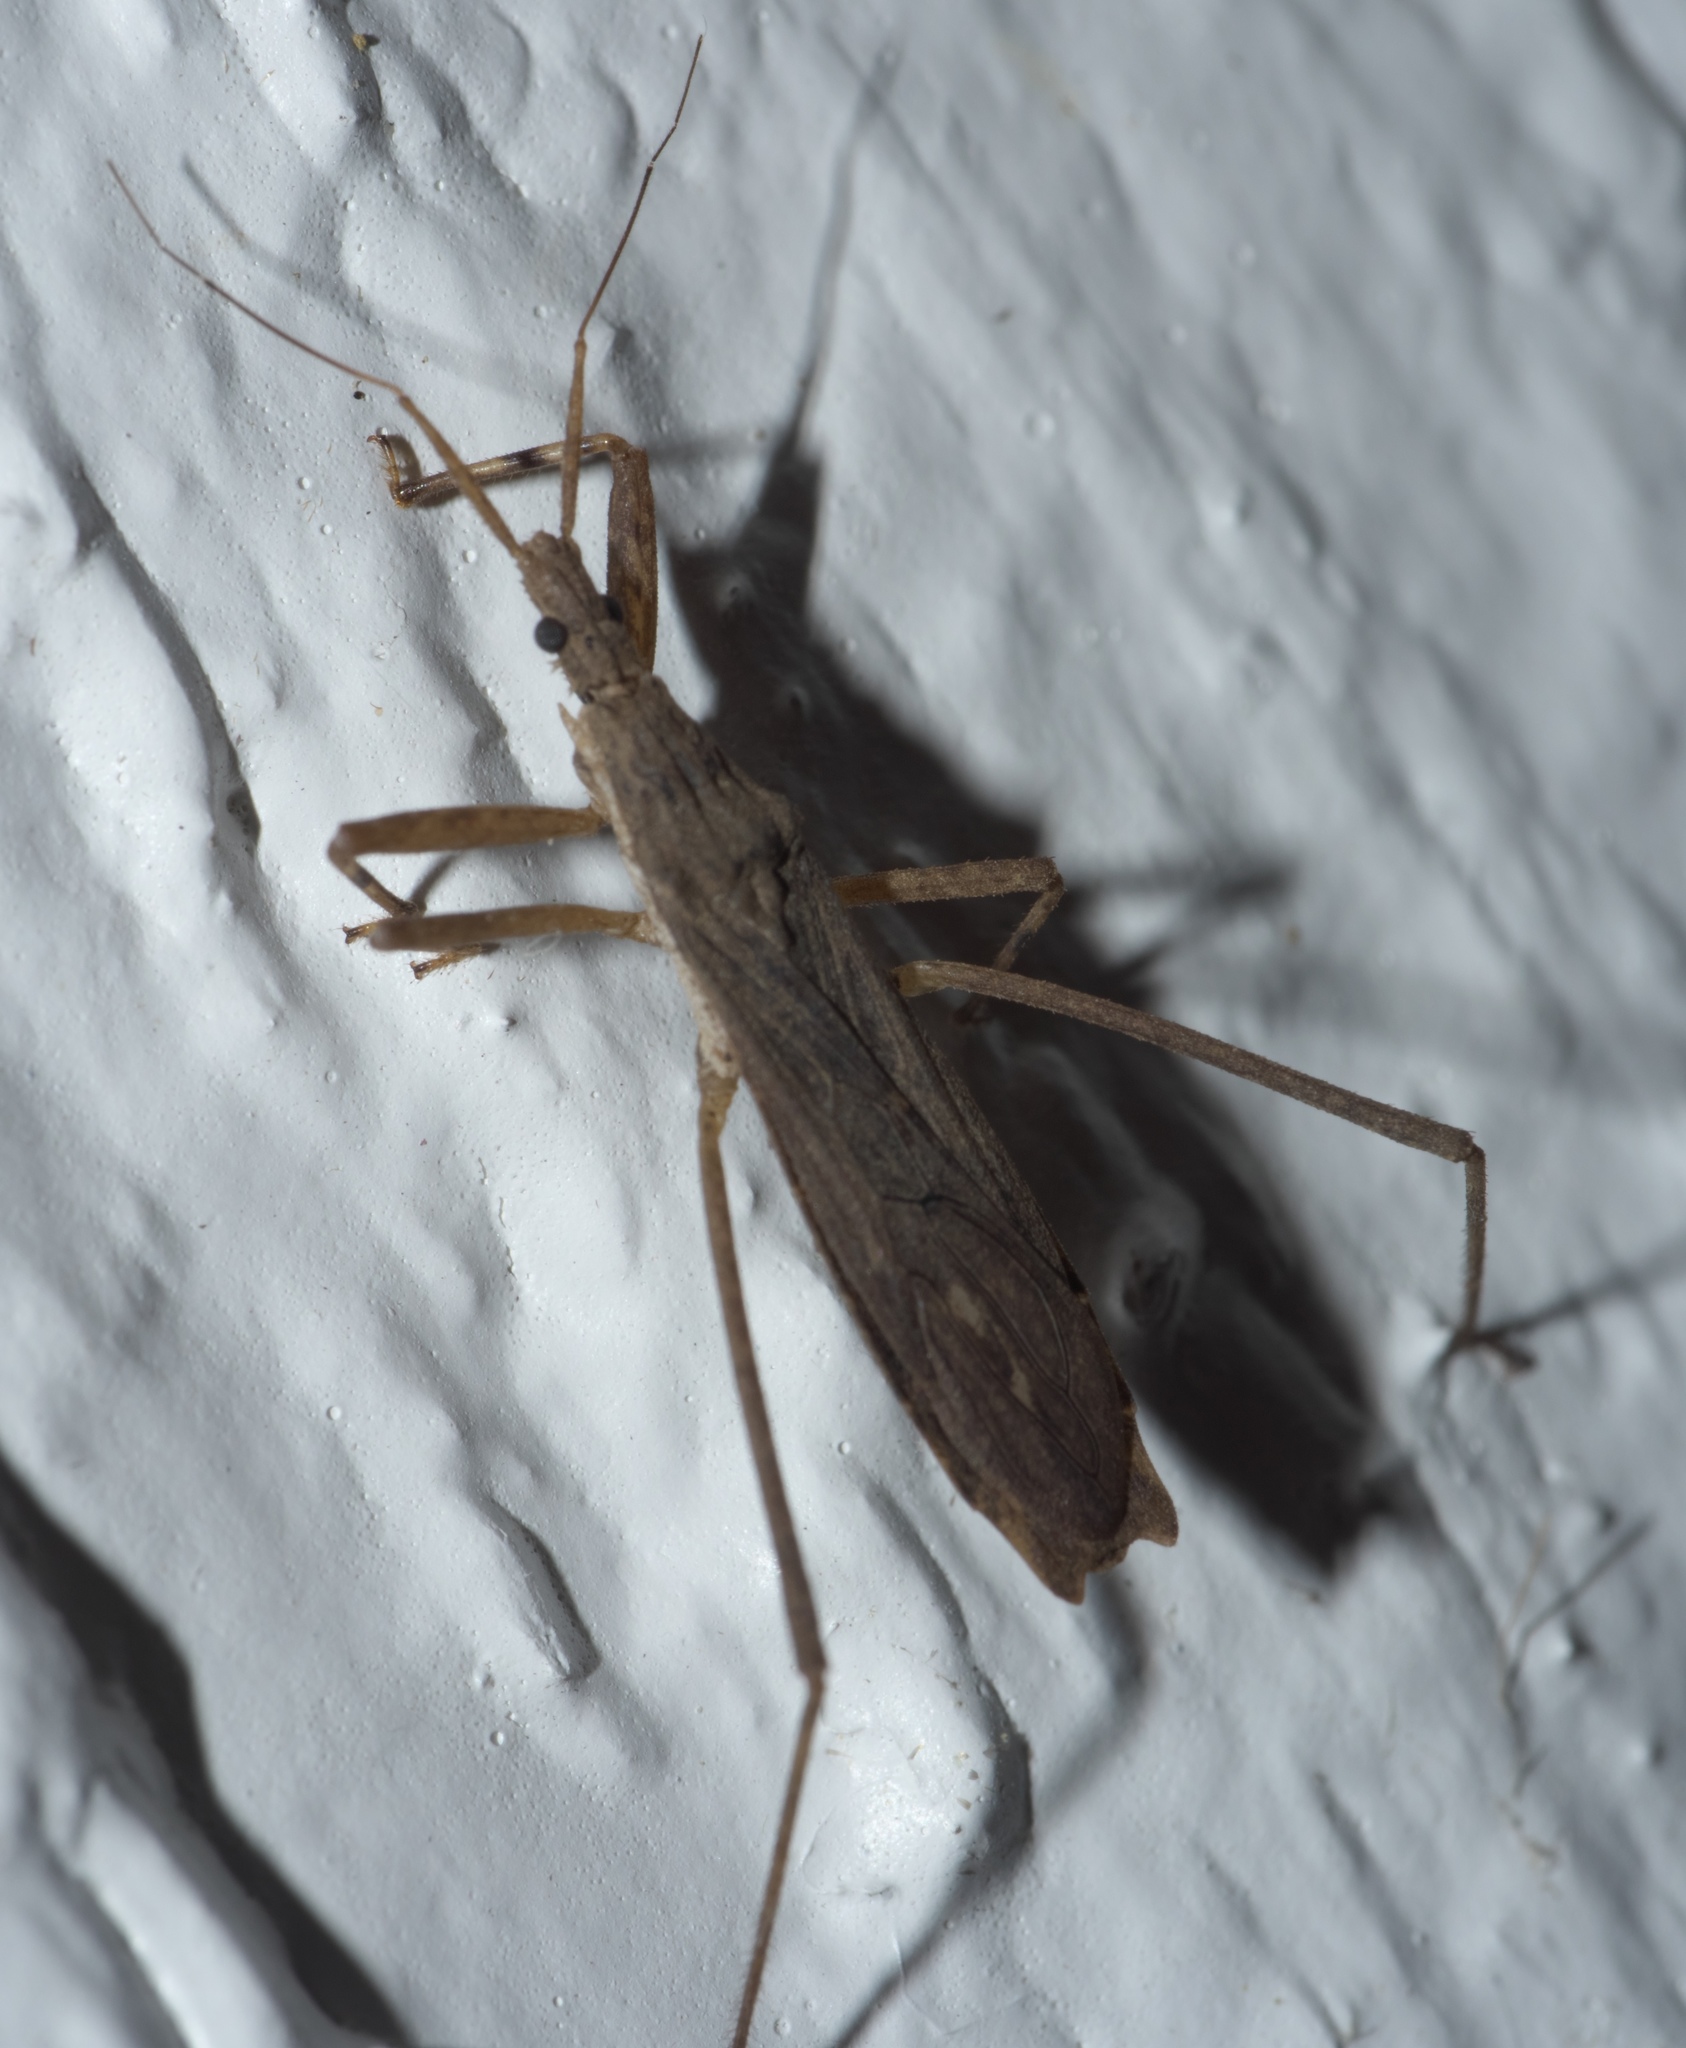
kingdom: Animalia
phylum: Arthropoda
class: Insecta
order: Hemiptera
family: Reduviidae
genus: Pygolampis
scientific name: Pygolampis pectoralis
